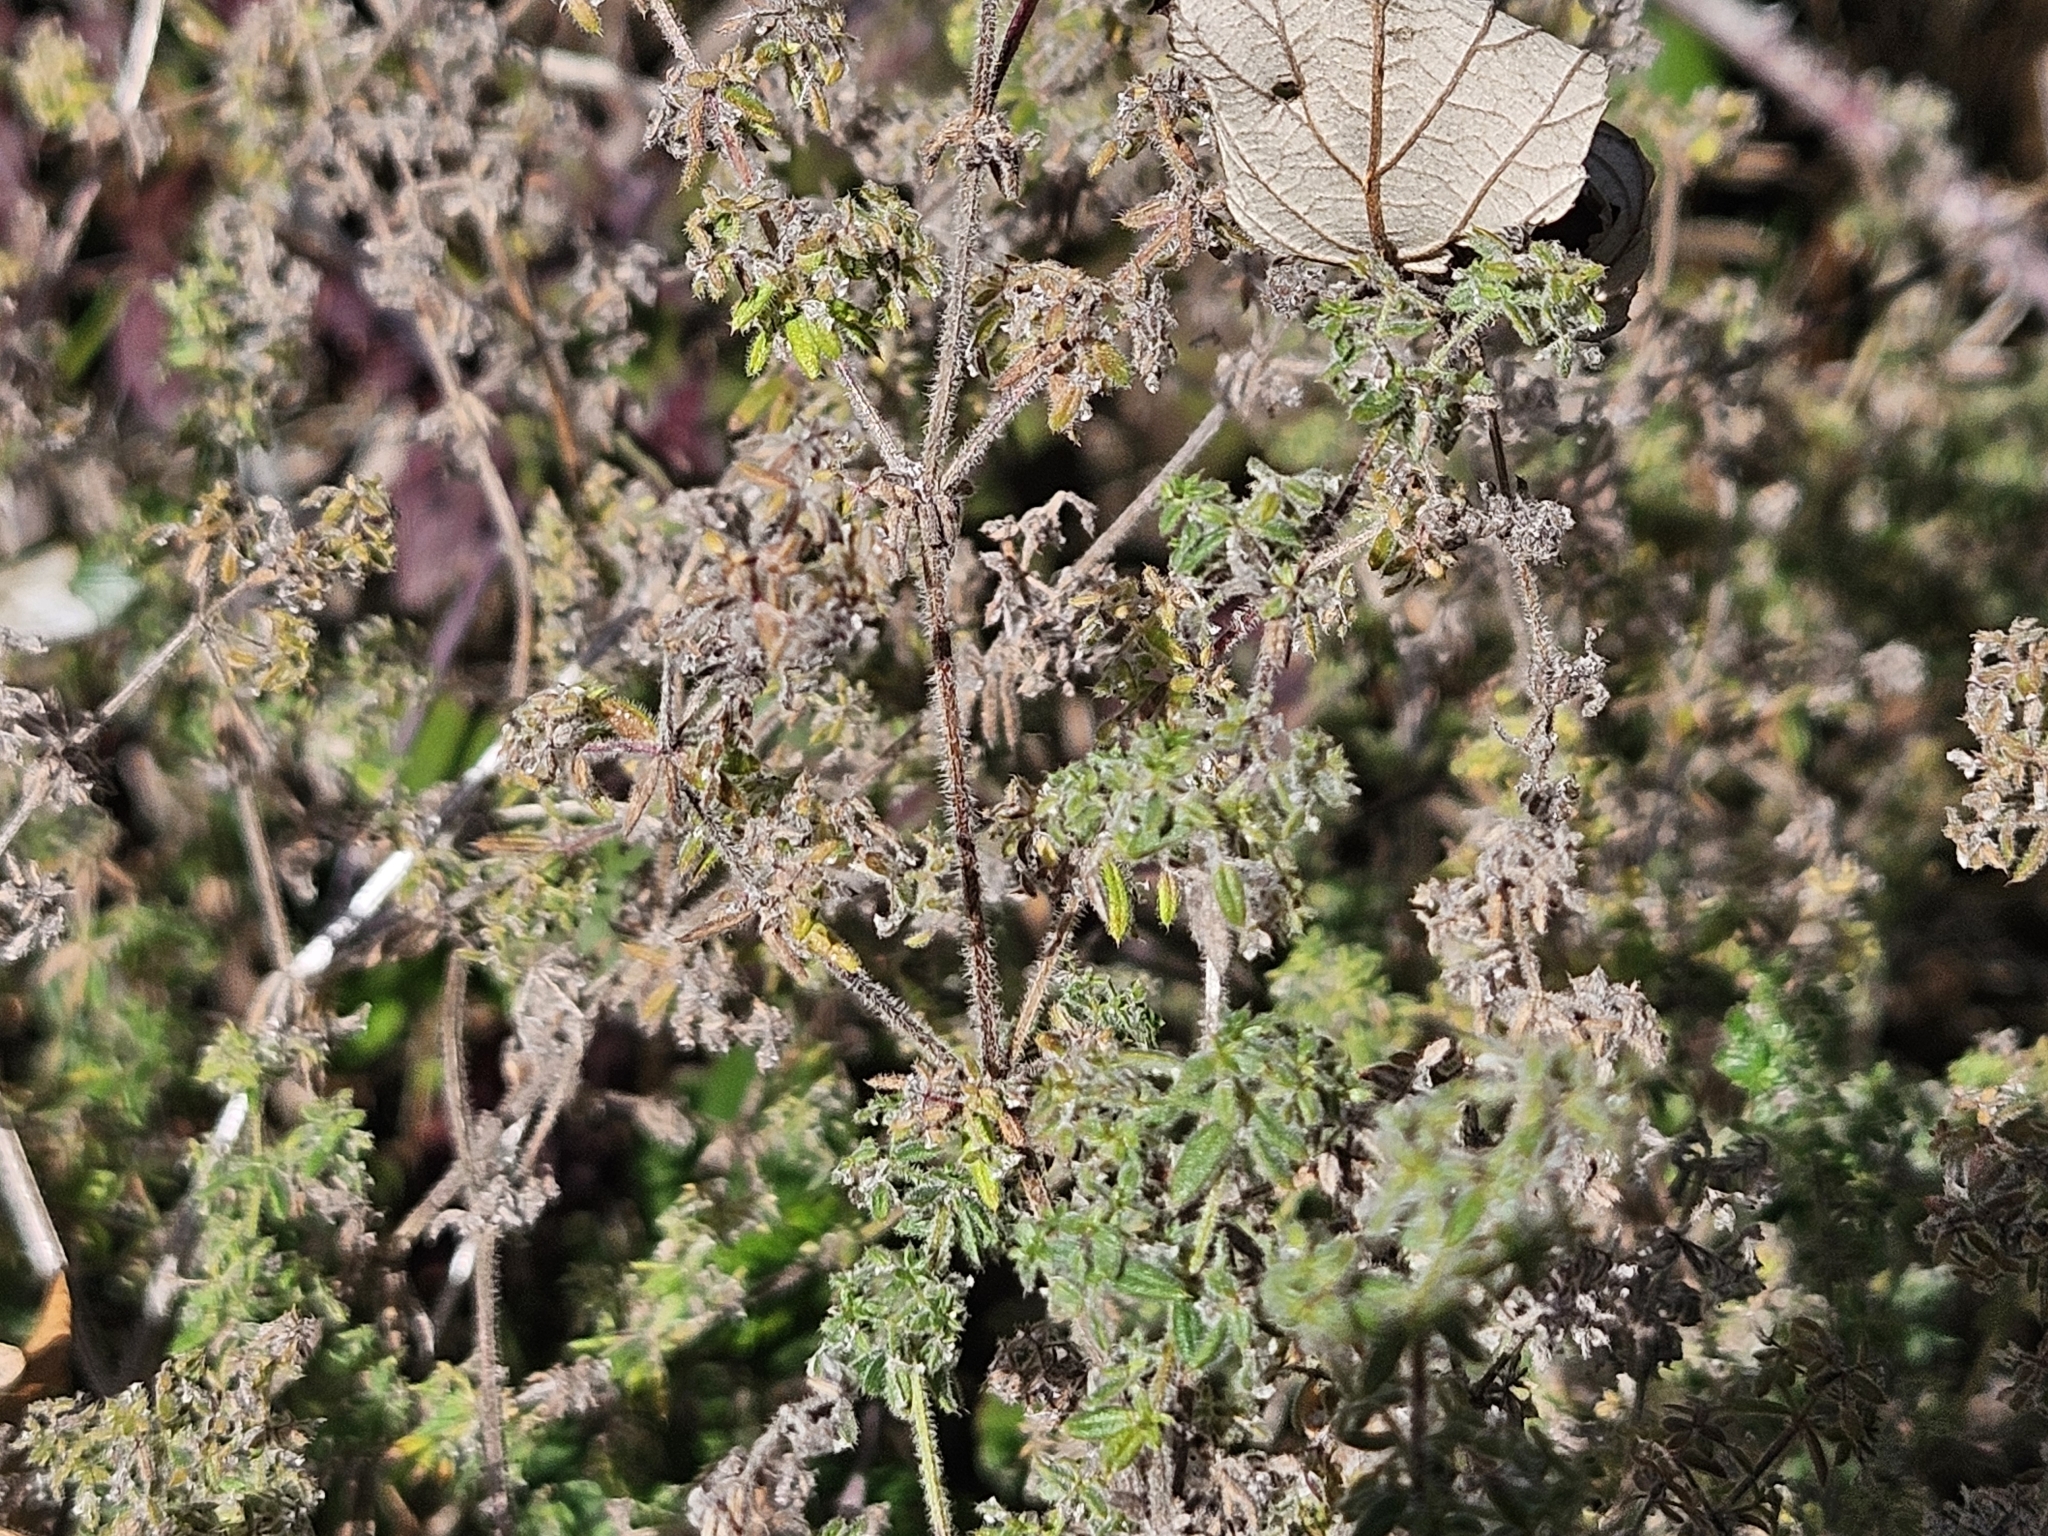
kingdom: Plantae
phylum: Tracheophyta
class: Magnoliopsida
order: Gentianales
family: Rubiaceae
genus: Galium
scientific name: Galium maritimum
